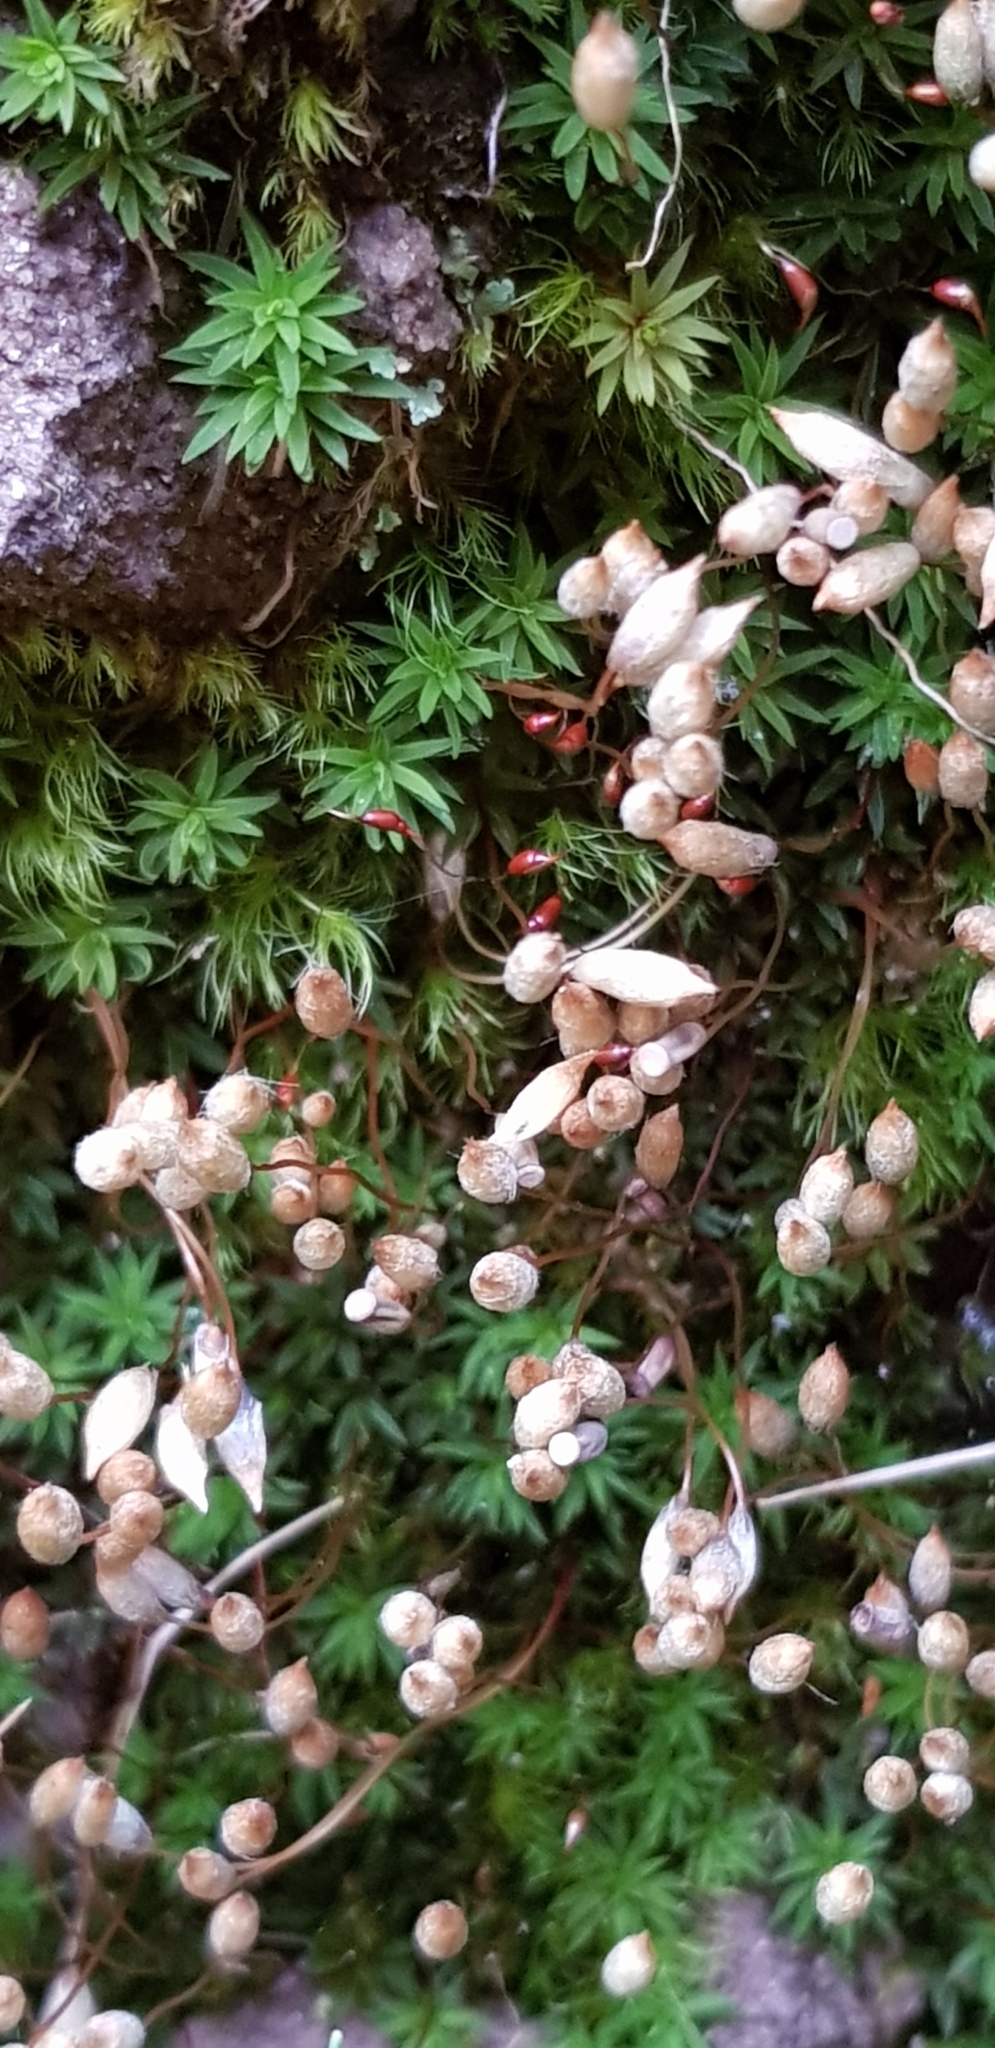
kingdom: Plantae
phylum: Bryophyta
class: Polytrichopsida
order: Polytrichales
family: Polytrichaceae
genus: Pogonatum
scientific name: Pogonatum aloides
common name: Aloe haircap
